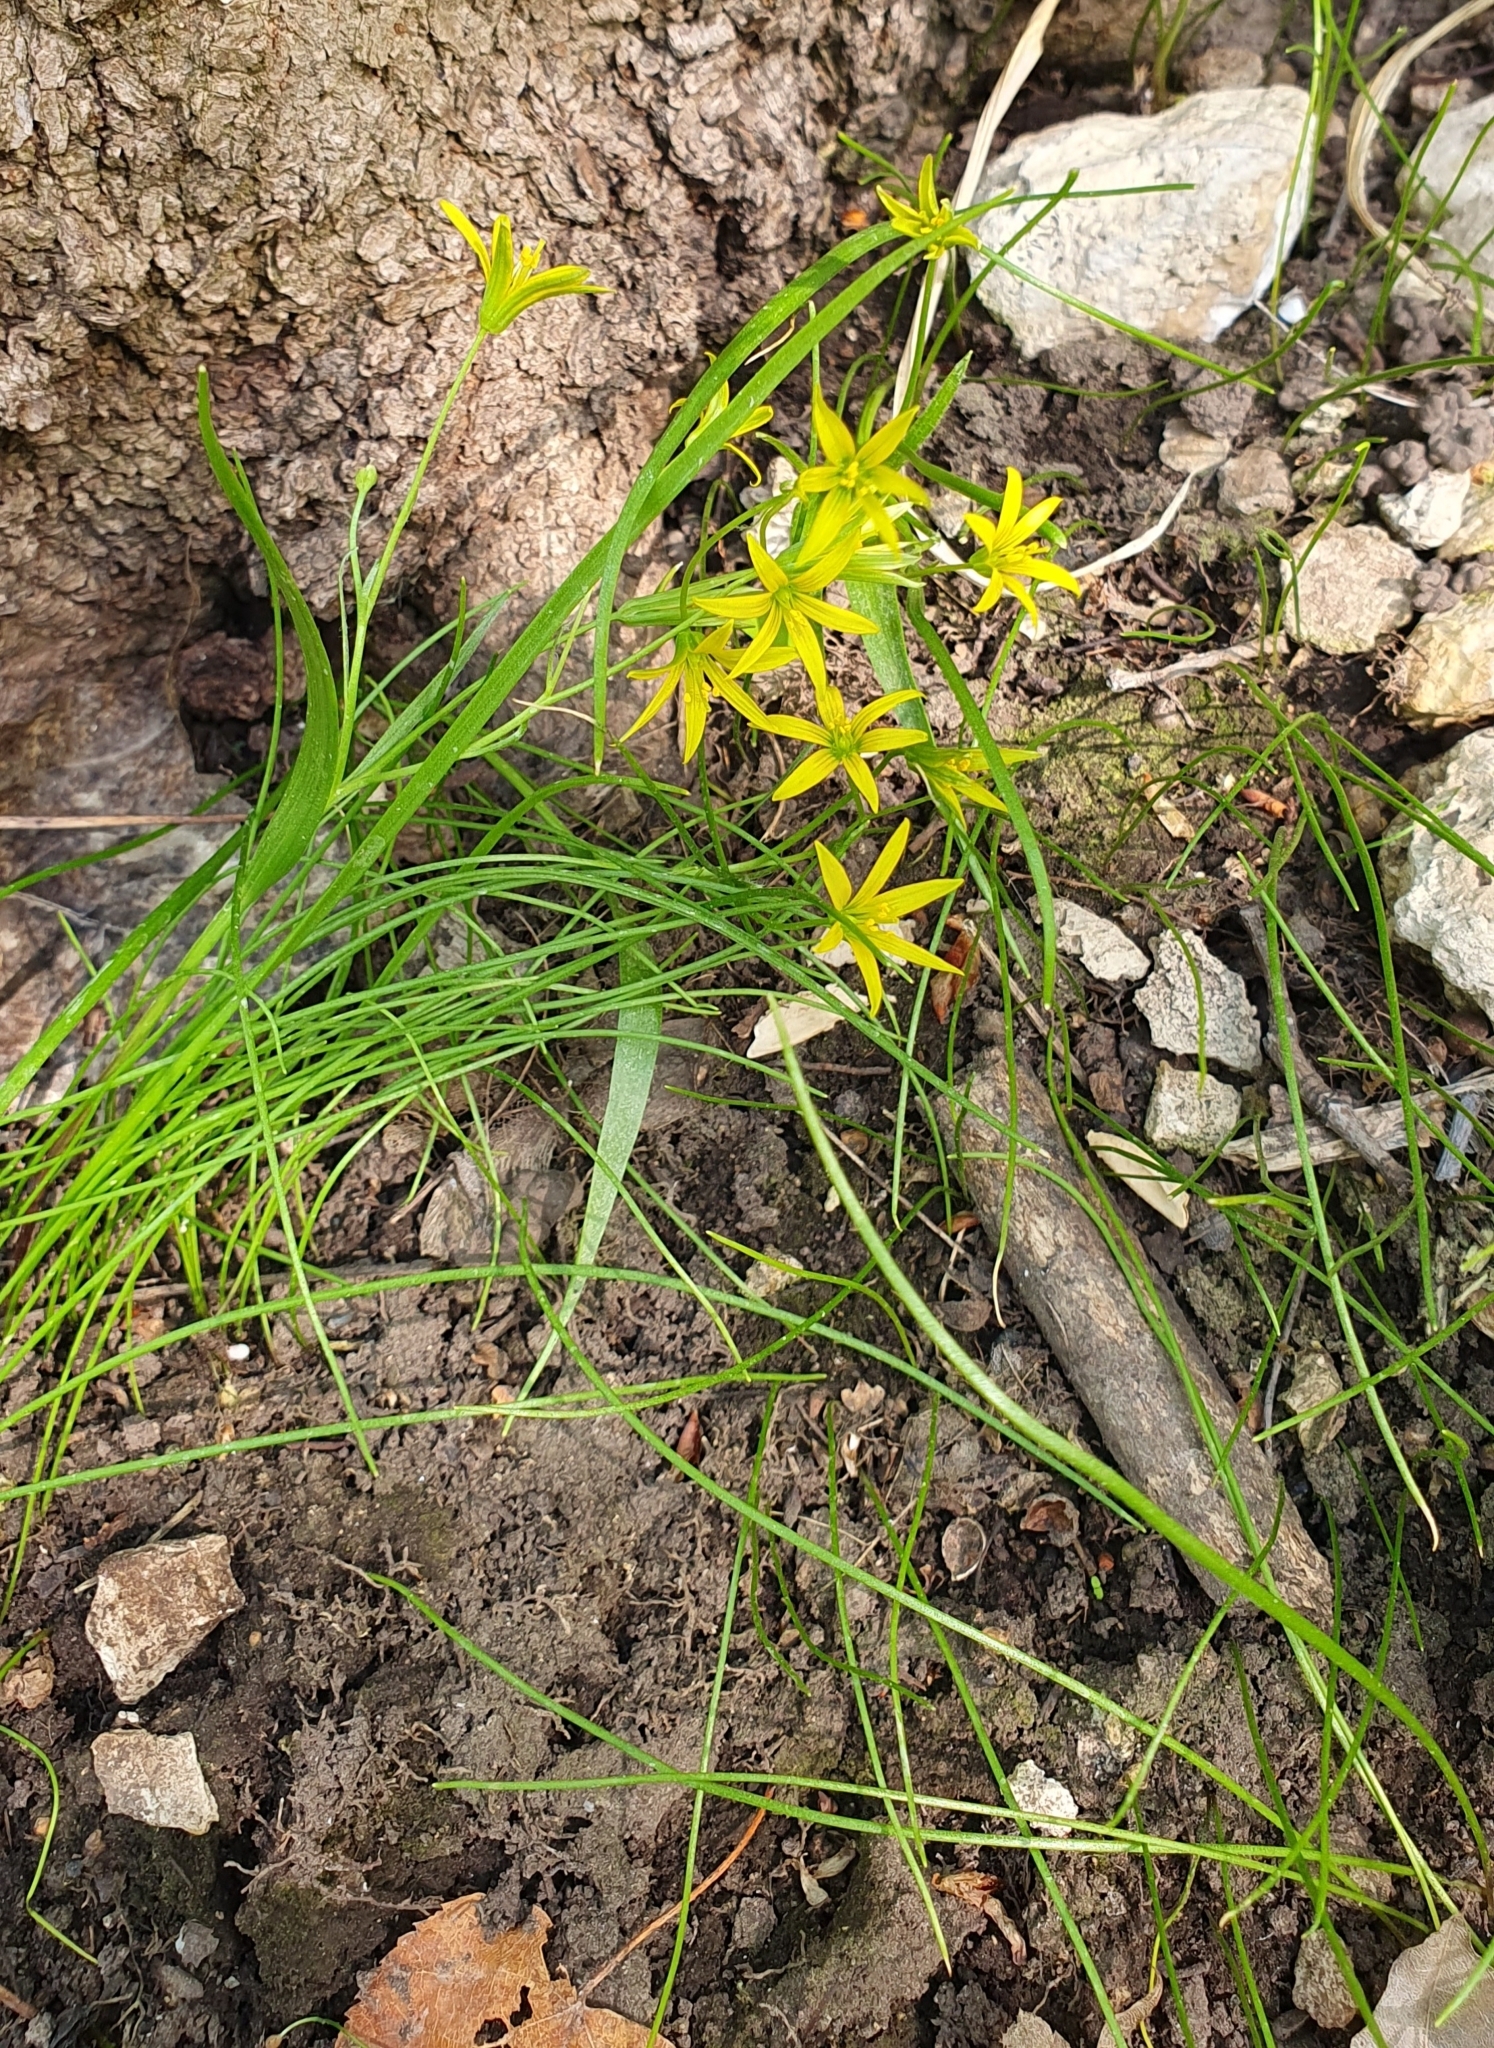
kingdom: Plantae
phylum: Tracheophyta
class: Liliopsida
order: Liliales
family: Liliaceae
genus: Gagea
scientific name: Gagea minima
